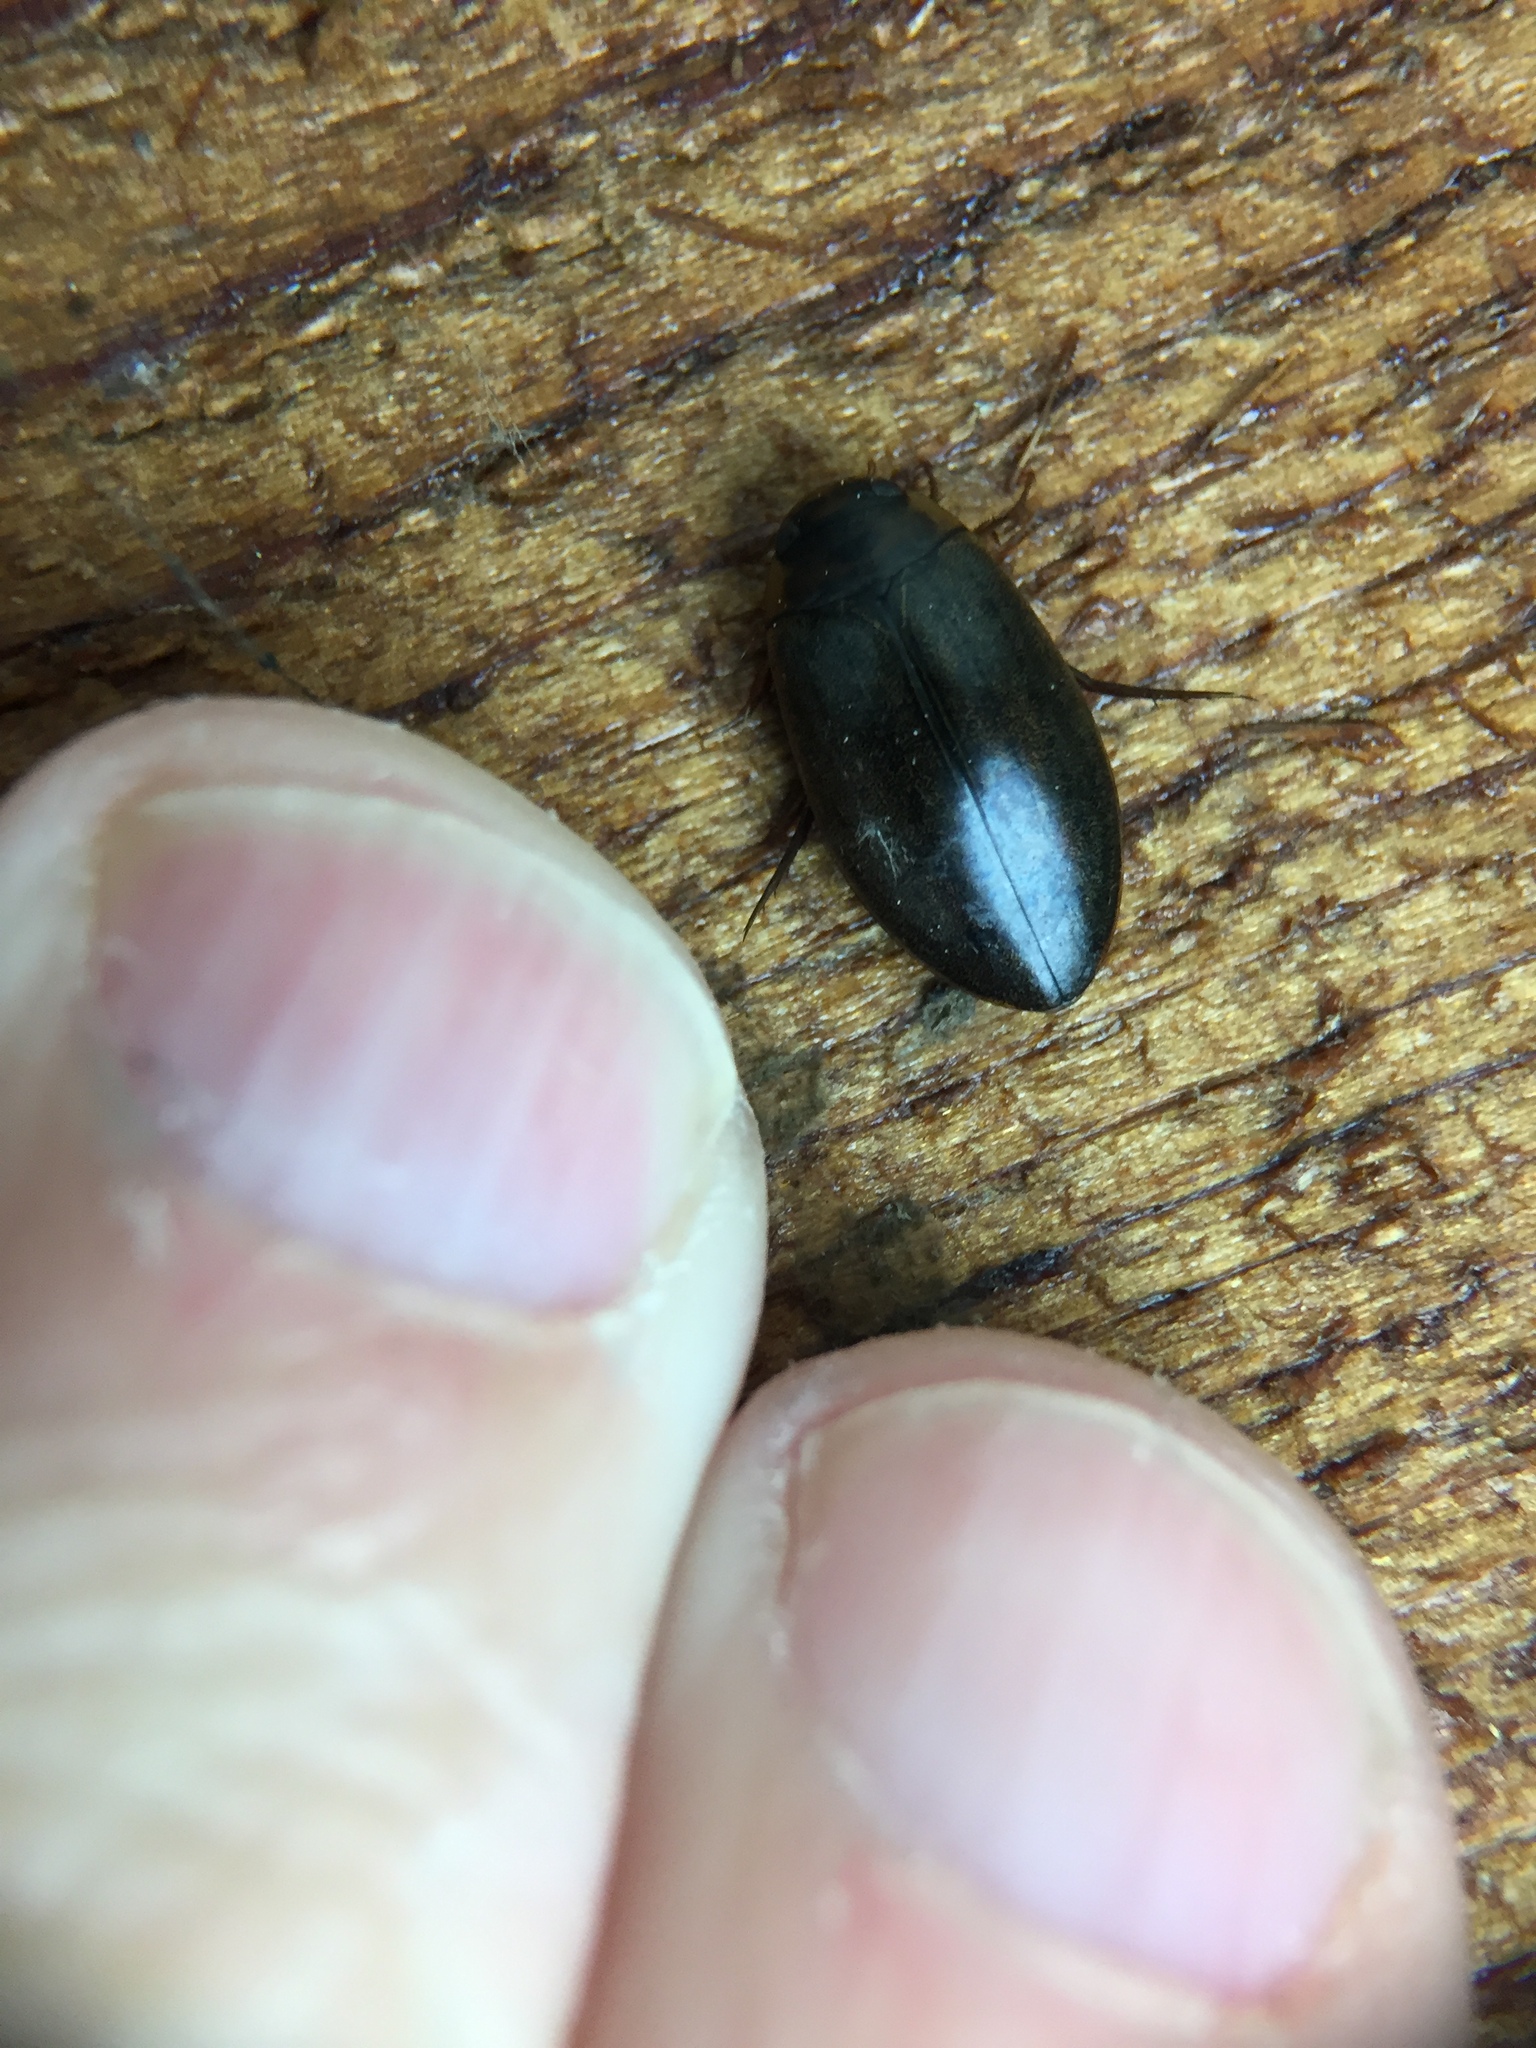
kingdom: Animalia
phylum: Arthropoda
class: Insecta
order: Coleoptera
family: Dytiscidae
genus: Rhantus
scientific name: Rhantus suturalis
